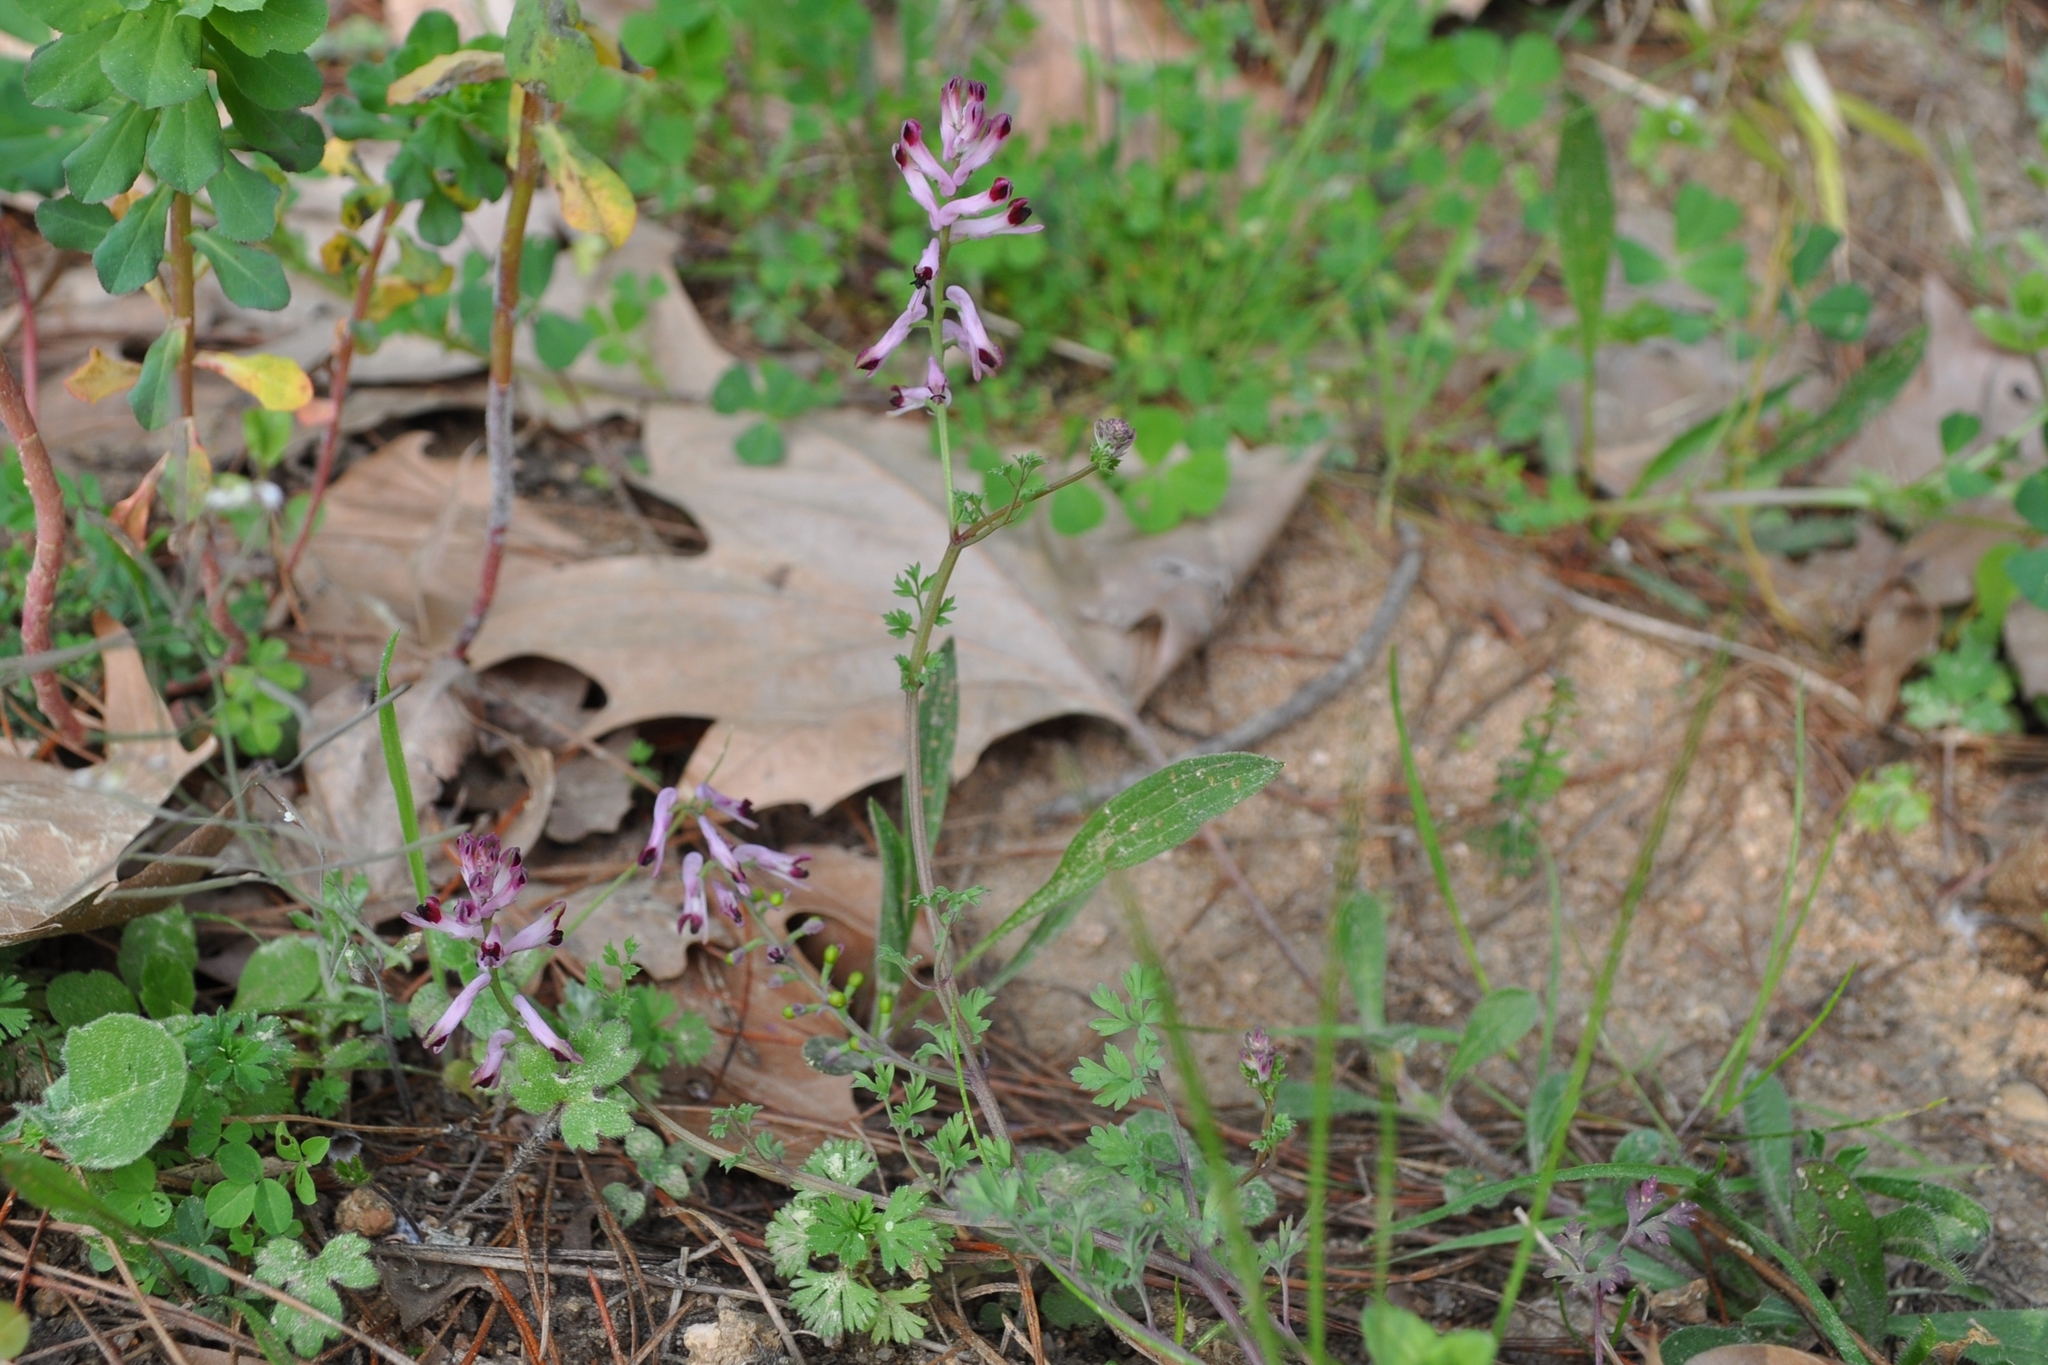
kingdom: Plantae
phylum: Tracheophyta
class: Magnoliopsida
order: Ranunculales
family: Papaveraceae
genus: Fumaria
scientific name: Fumaria bastardii
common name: Tall ramping-fumitory
